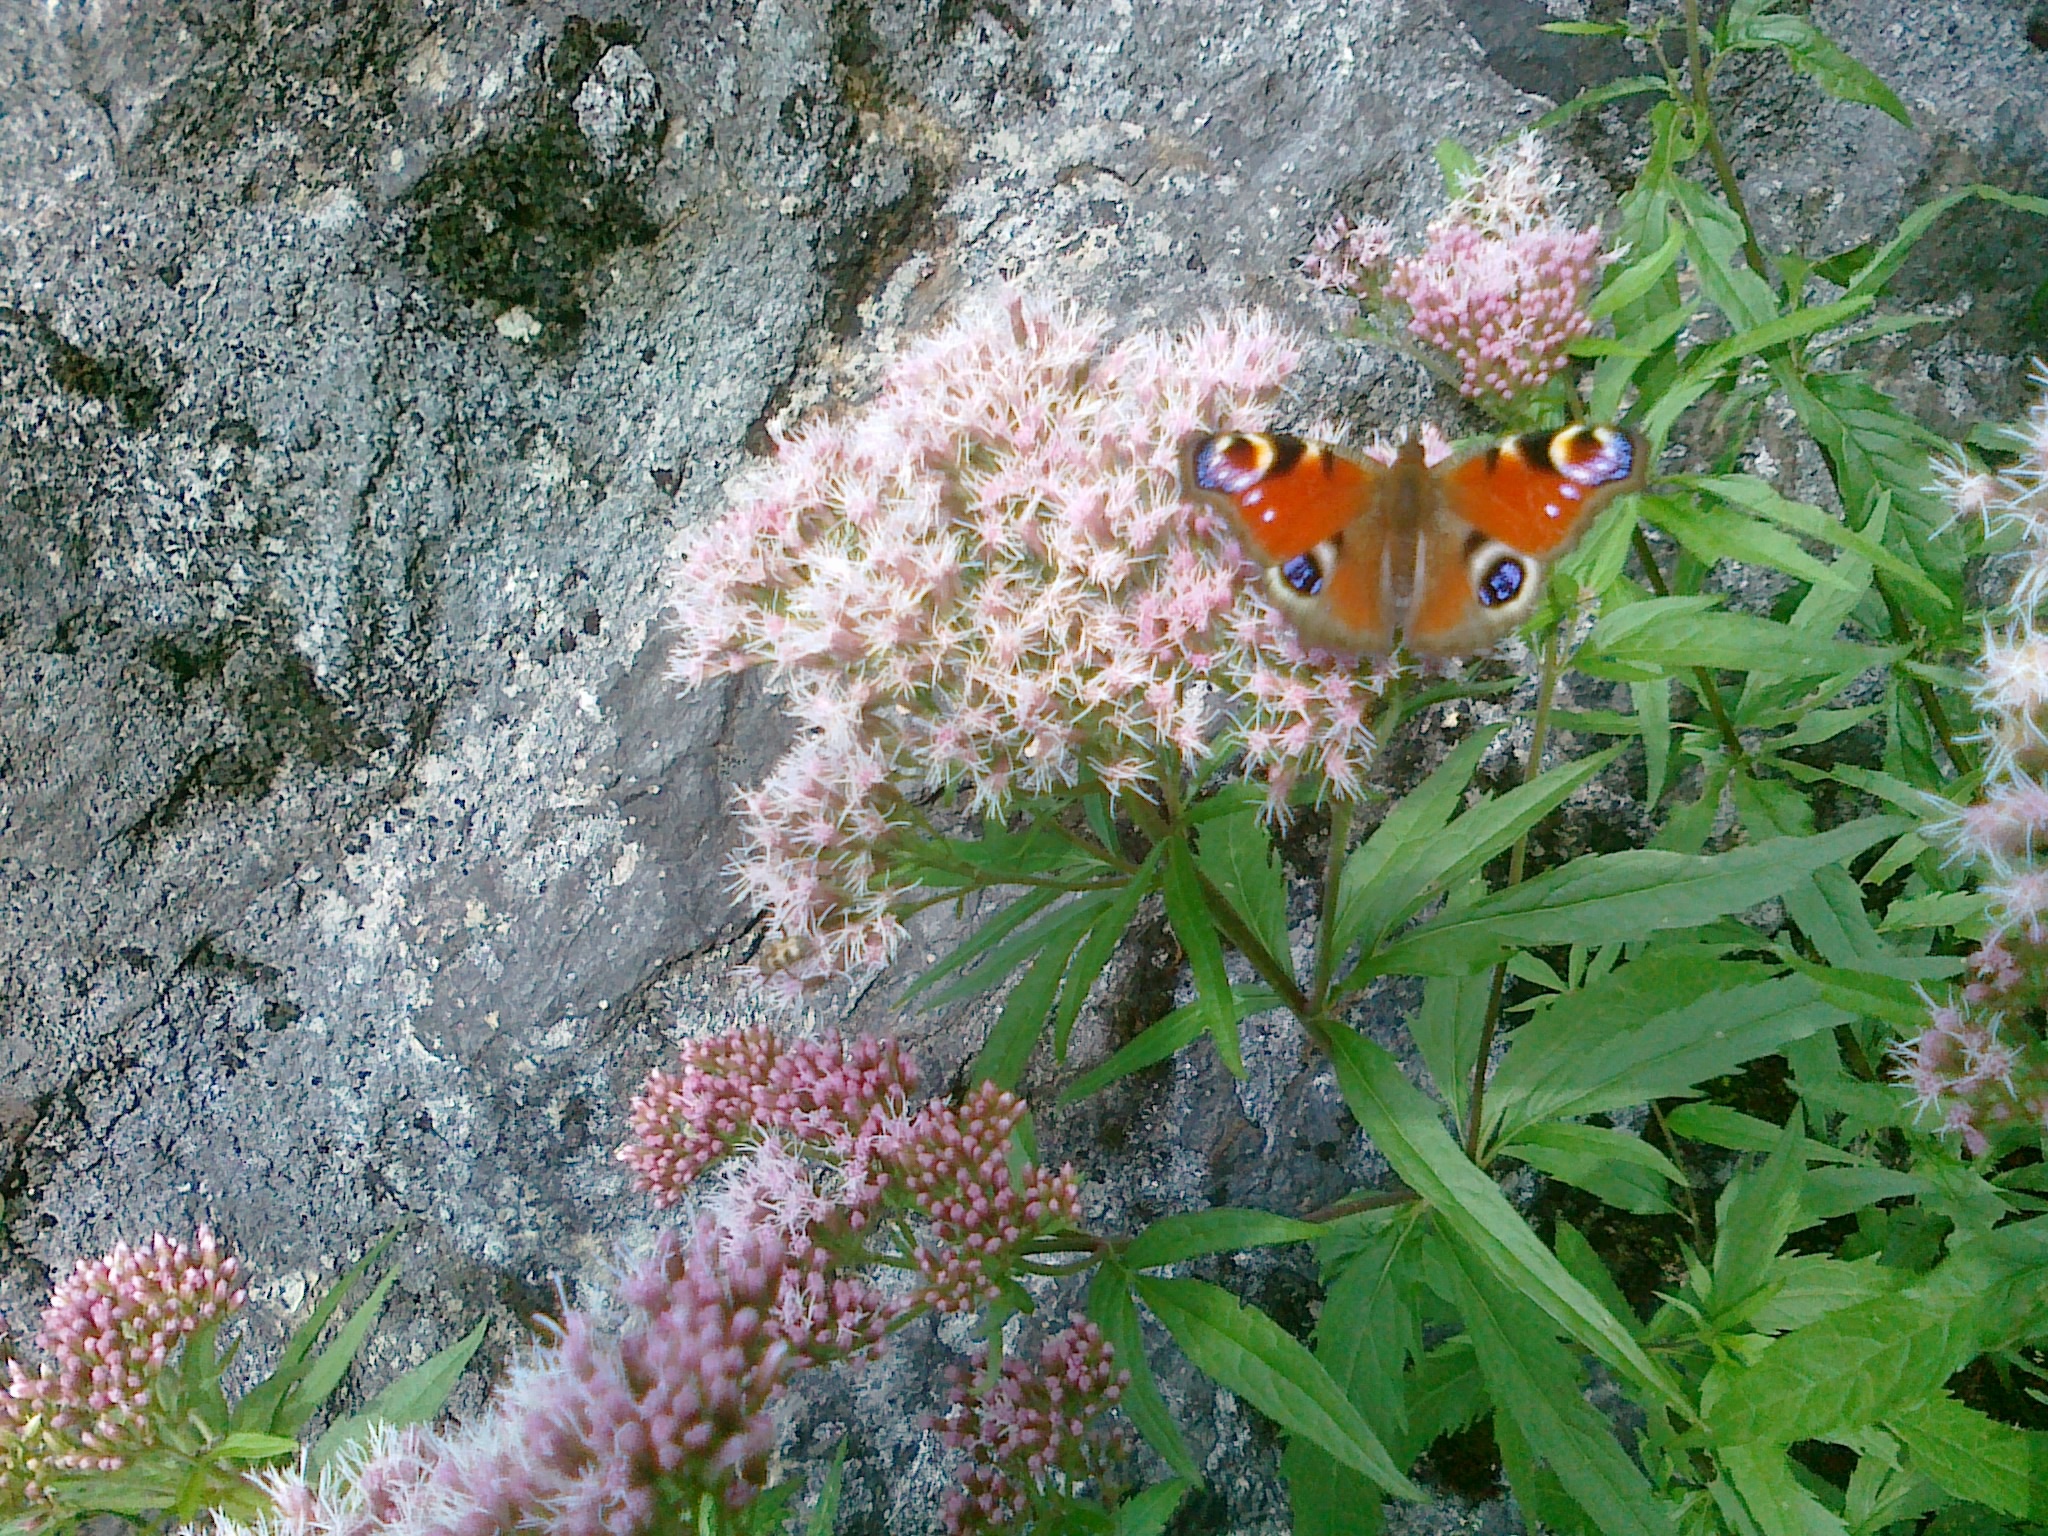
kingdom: Animalia
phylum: Arthropoda
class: Insecta
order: Lepidoptera
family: Nymphalidae
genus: Aglais
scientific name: Aglais io
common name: Peacock
